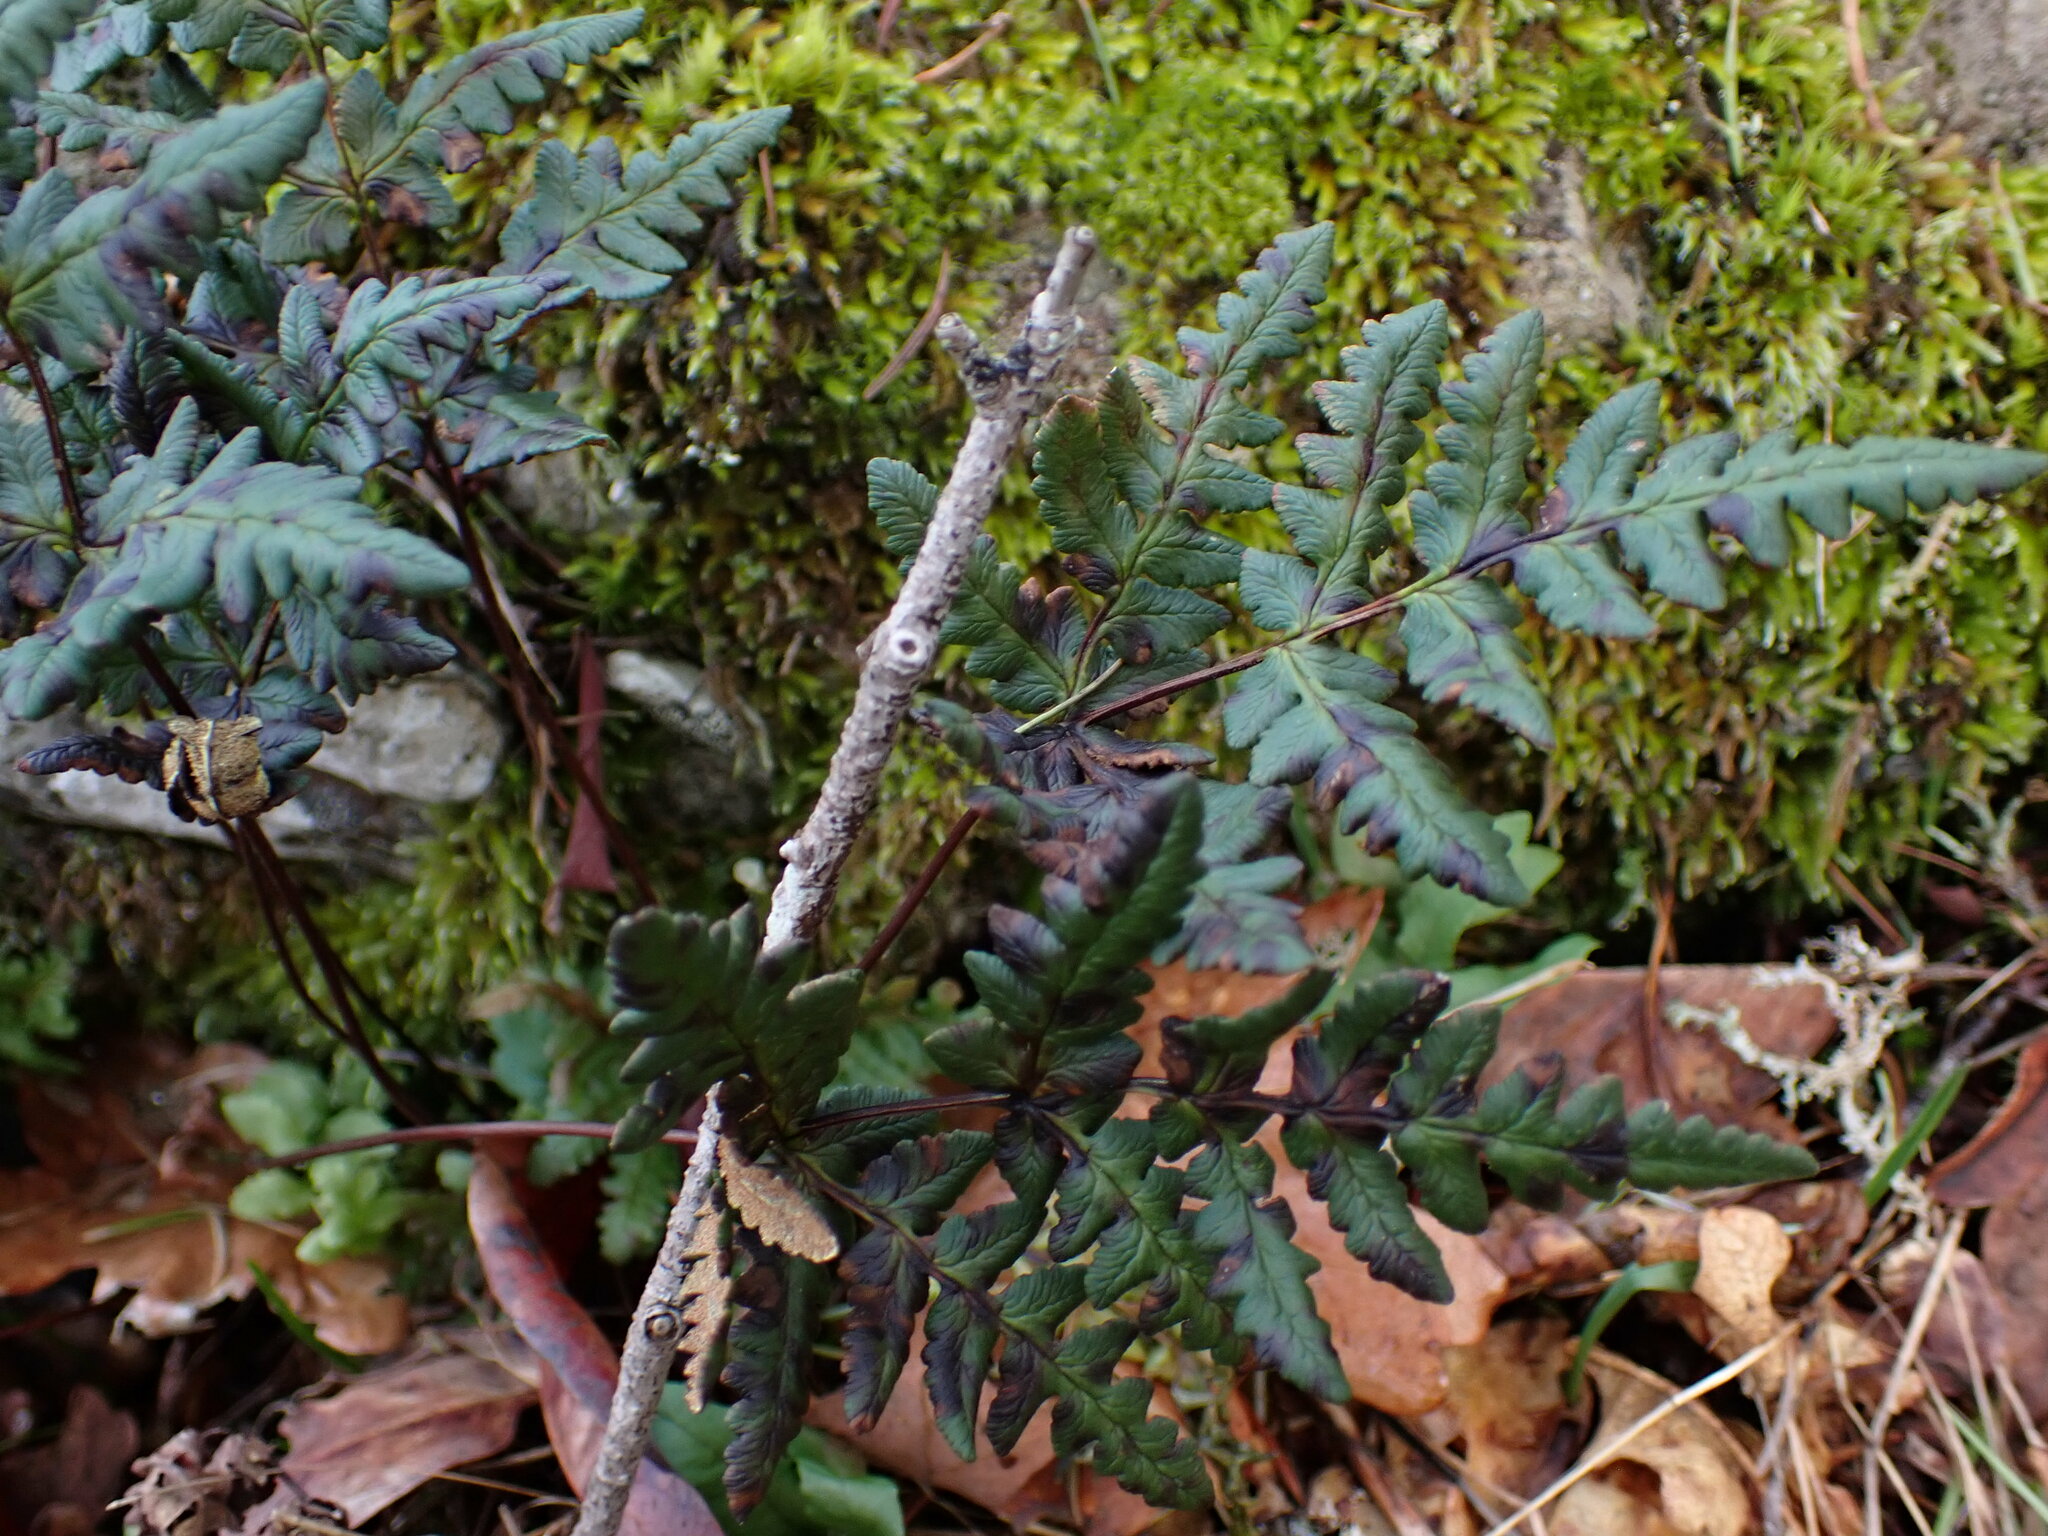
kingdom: Plantae
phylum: Tracheophyta
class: Polypodiopsida
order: Polypodiales
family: Pteridaceae
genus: Pentagramma
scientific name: Pentagramma triangularis
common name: Gold fern
